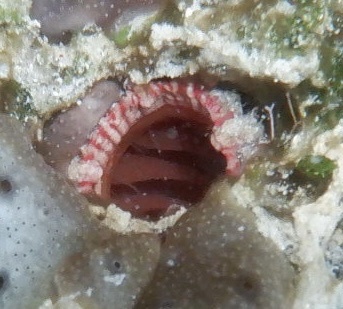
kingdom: Animalia
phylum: Chordata
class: Ascidiacea
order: Stolidobranchia
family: Pyuridae
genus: Pyura
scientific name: Pyura torpida
